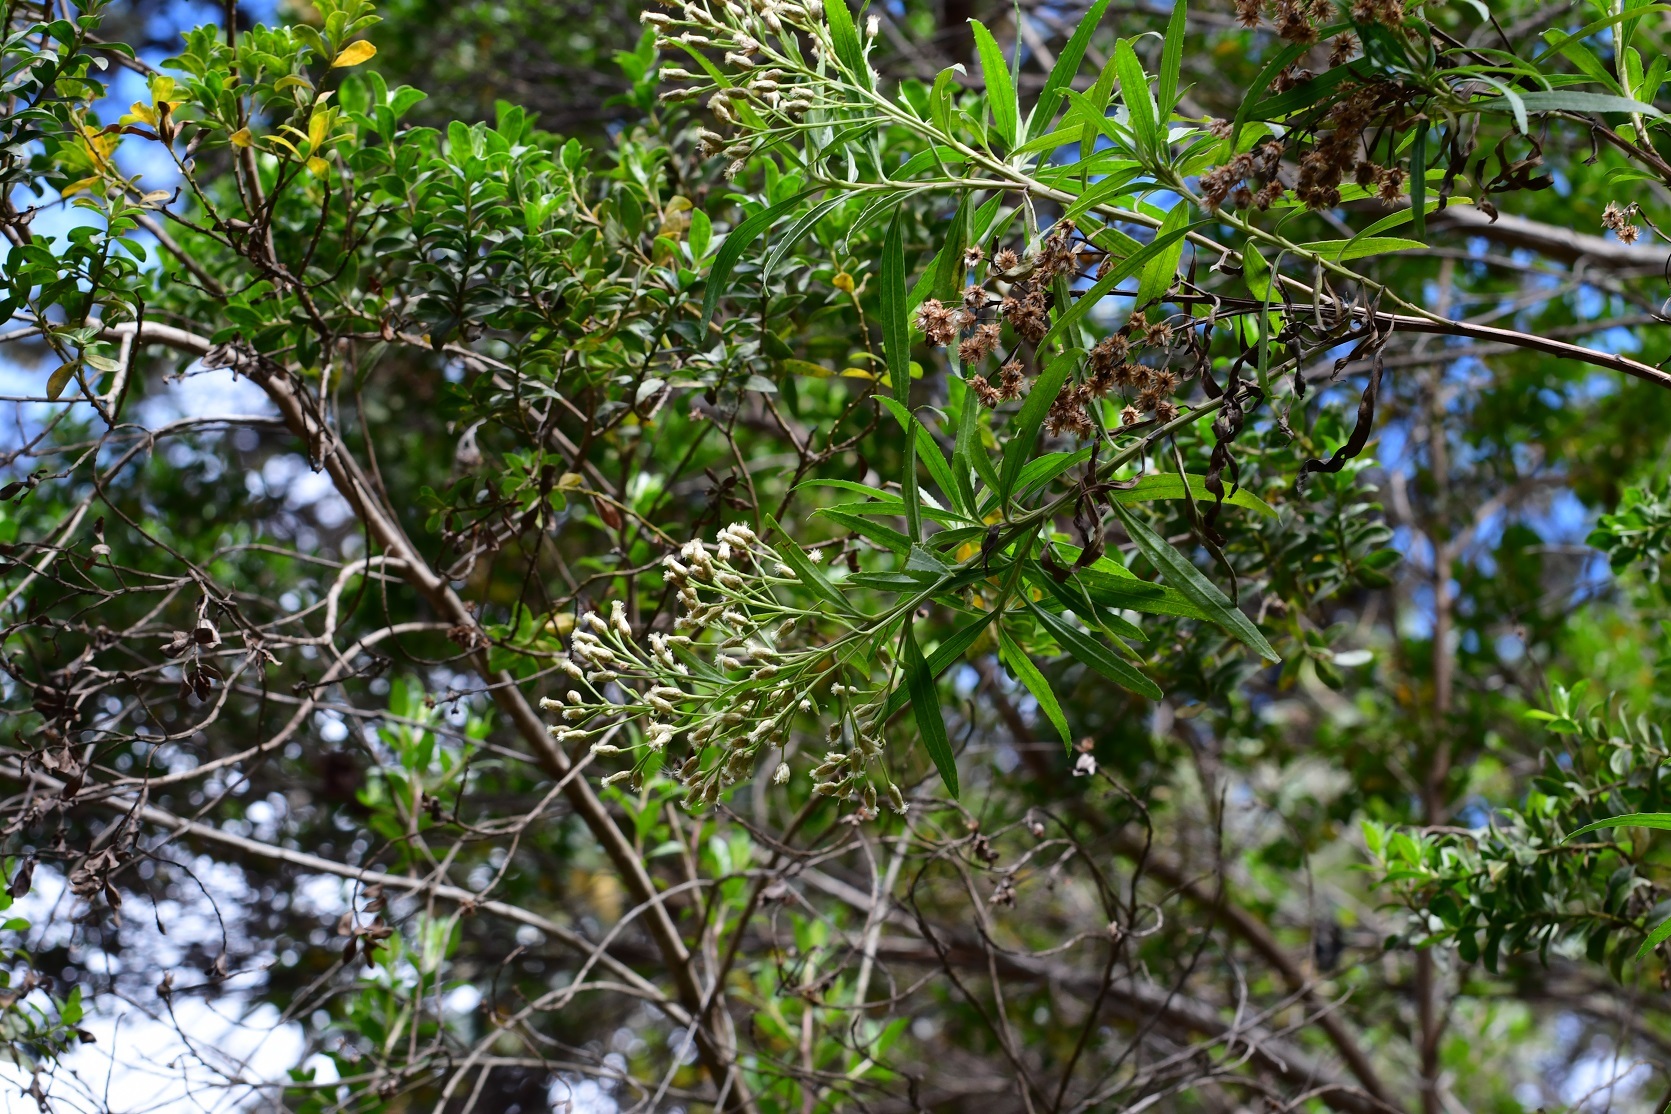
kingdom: Plantae
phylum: Tracheophyta
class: Magnoliopsida
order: Asterales
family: Asteraceae
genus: Baccharis
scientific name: Baccharis salicifolia
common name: Sticky baccharis
